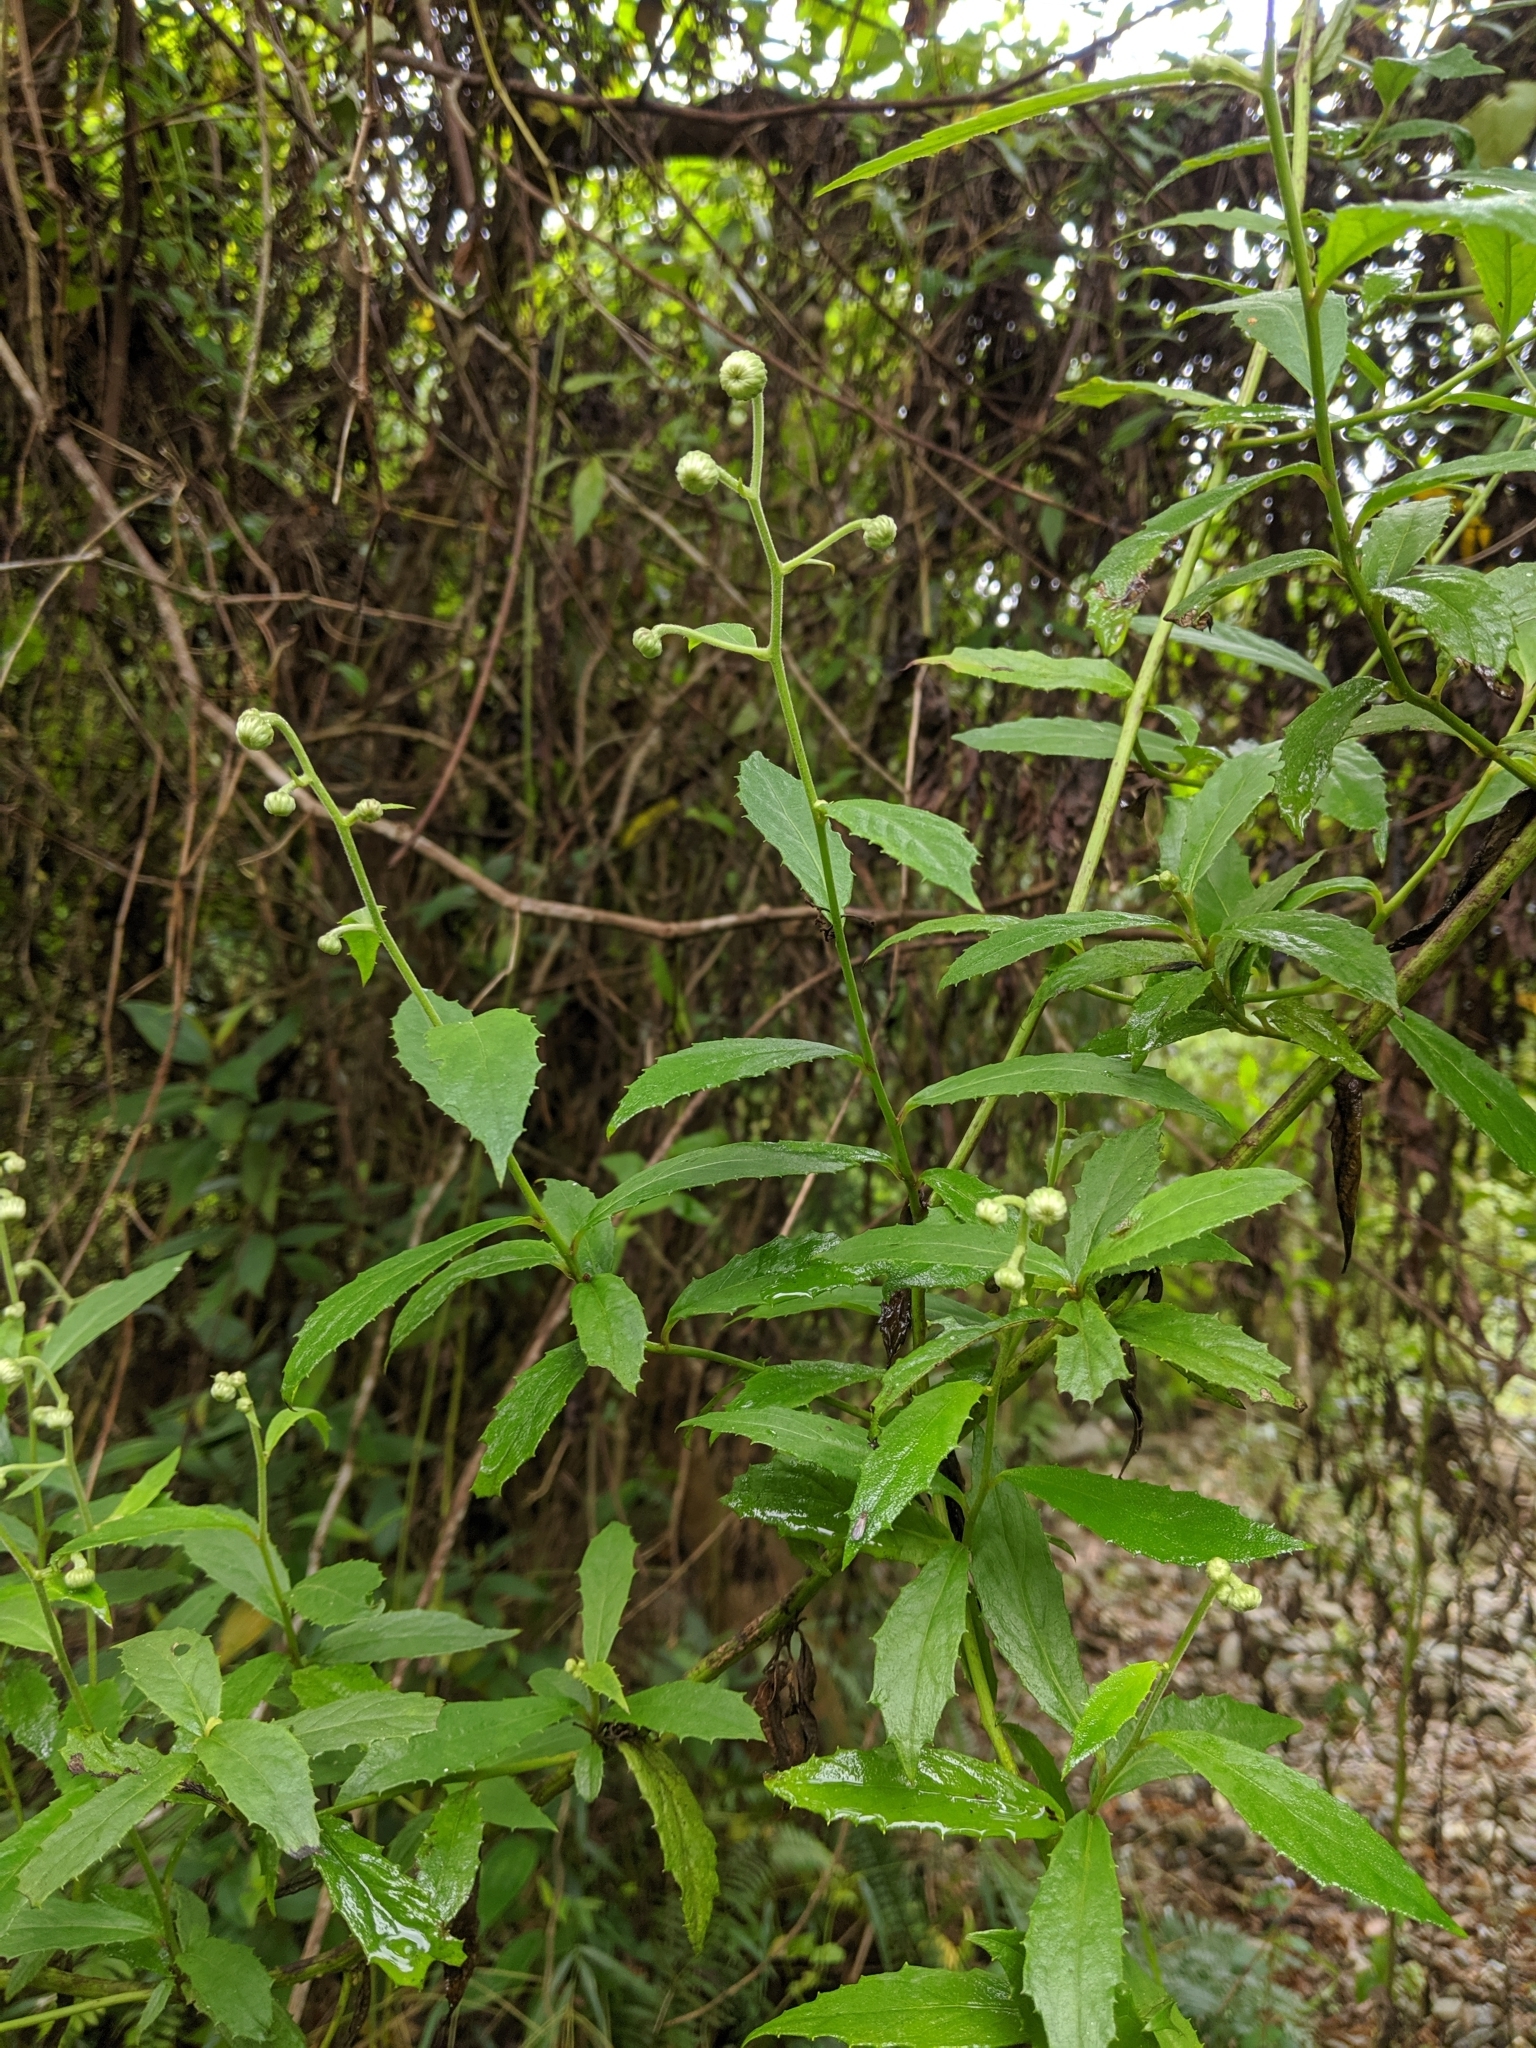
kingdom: Plantae
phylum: Tracheophyta
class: Magnoliopsida
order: Asterales
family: Asteraceae
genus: Blumea
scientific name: Blumea megacephala
